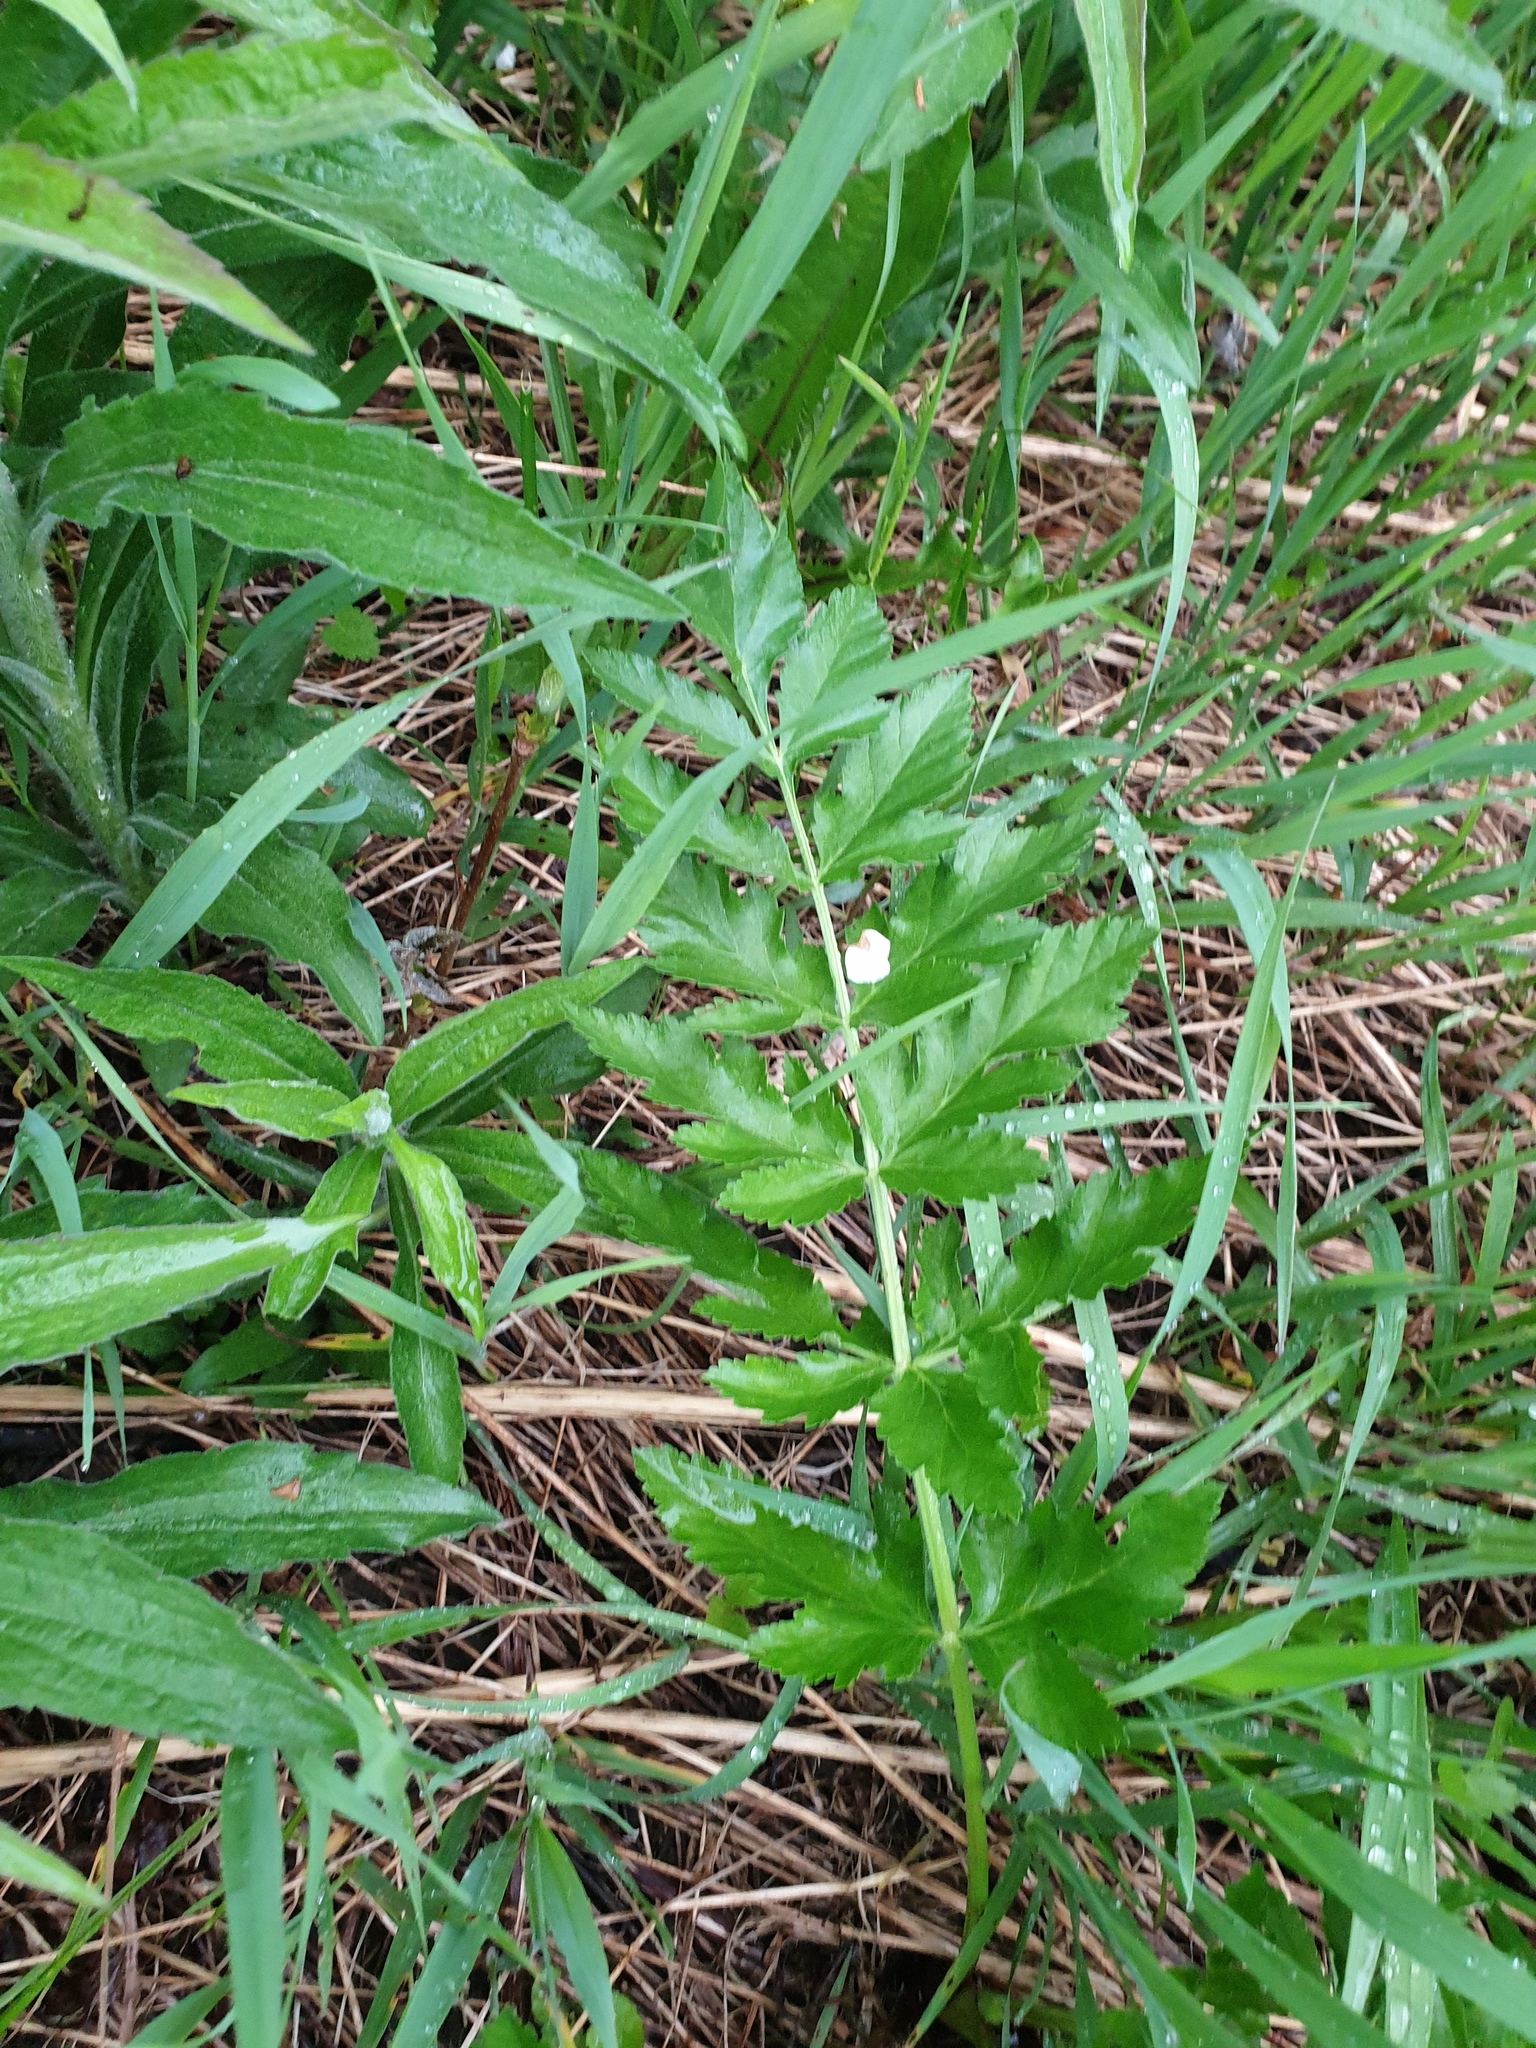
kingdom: Plantae
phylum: Tracheophyta
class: Magnoliopsida
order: Apiales
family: Apiaceae
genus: Pastinaca
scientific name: Pastinaca sativa
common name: Wild parsnip
